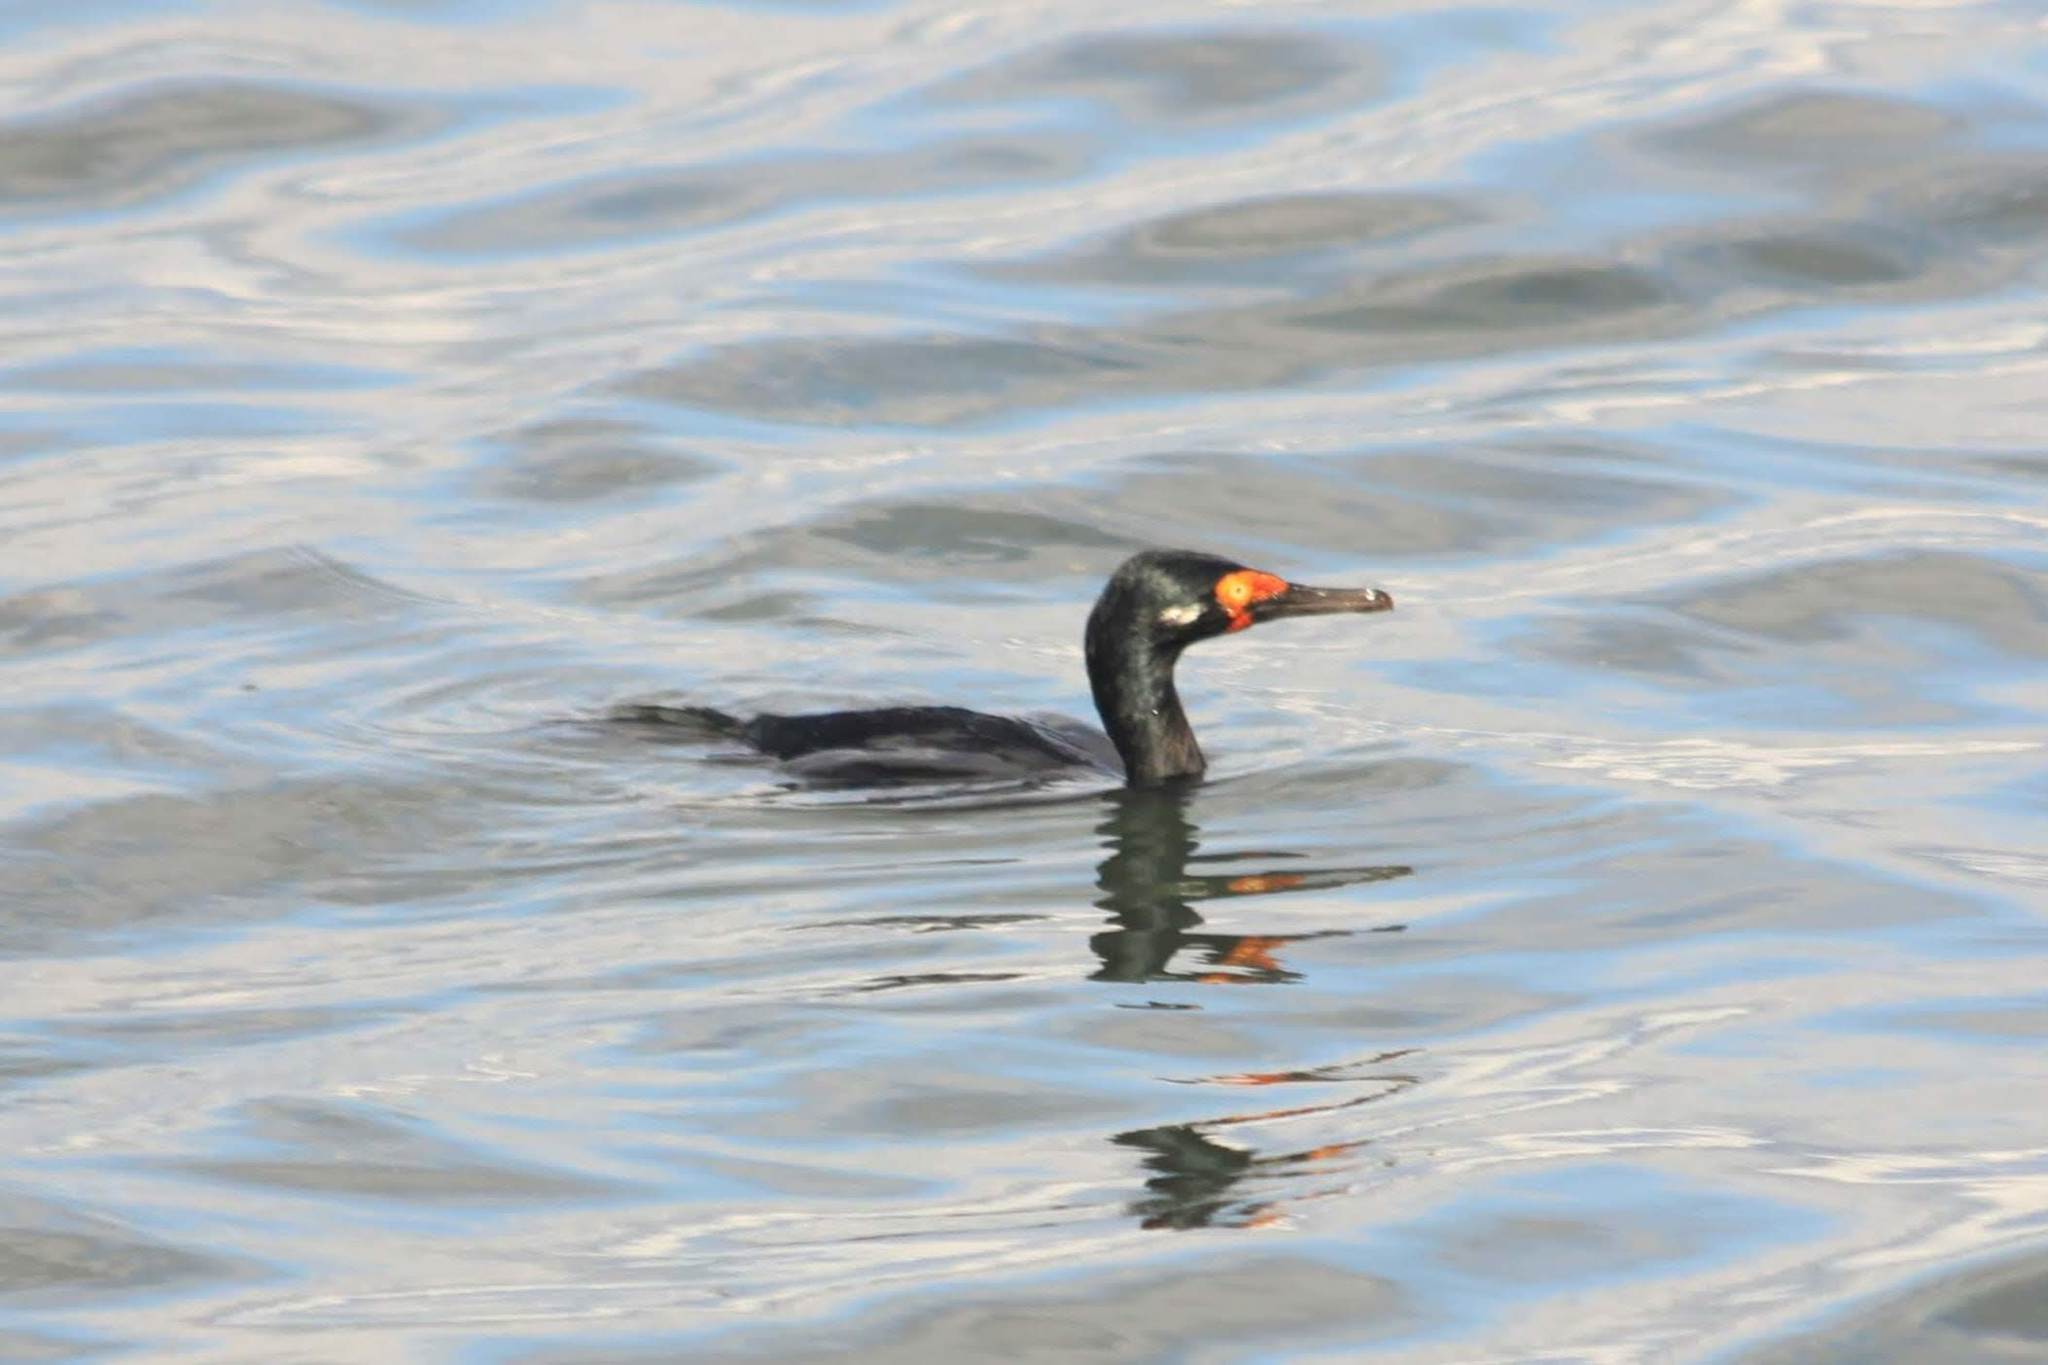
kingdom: Animalia
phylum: Chordata
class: Aves
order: Suliformes
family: Phalacrocoracidae
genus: Phalacrocorax
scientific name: Phalacrocorax magellanicus
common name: Rock shag
